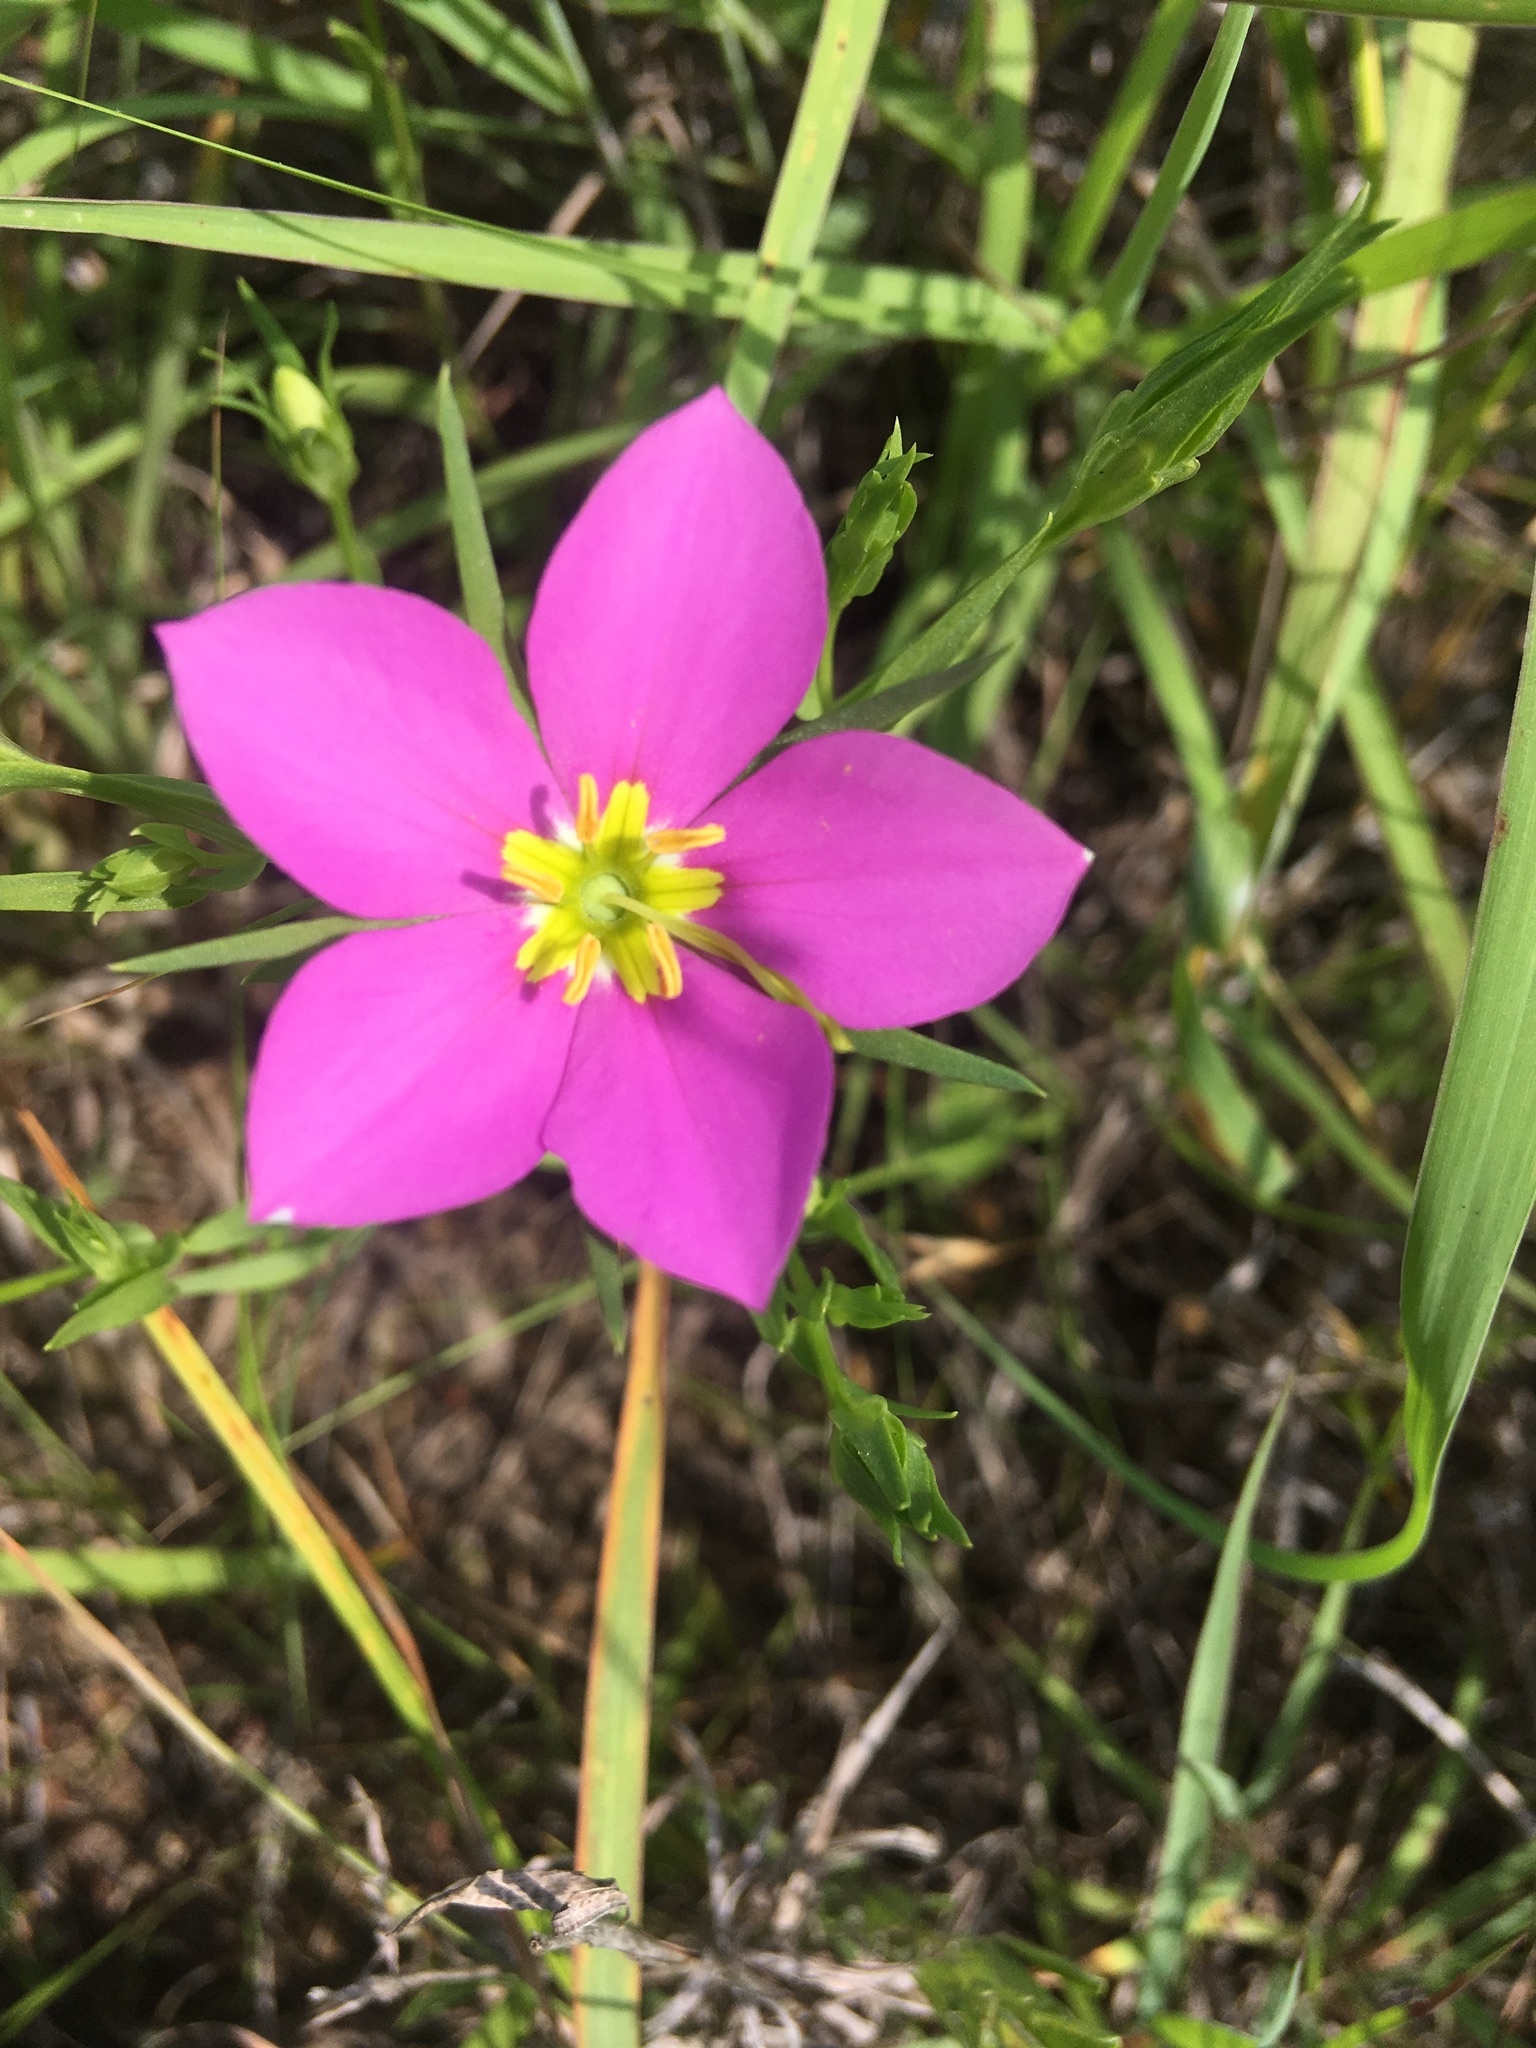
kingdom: Plantae
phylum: Tracheophyta
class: Magnoliopsida
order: Gentianales
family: Gentianaceae
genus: Sabatia
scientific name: Sabatia campestris
